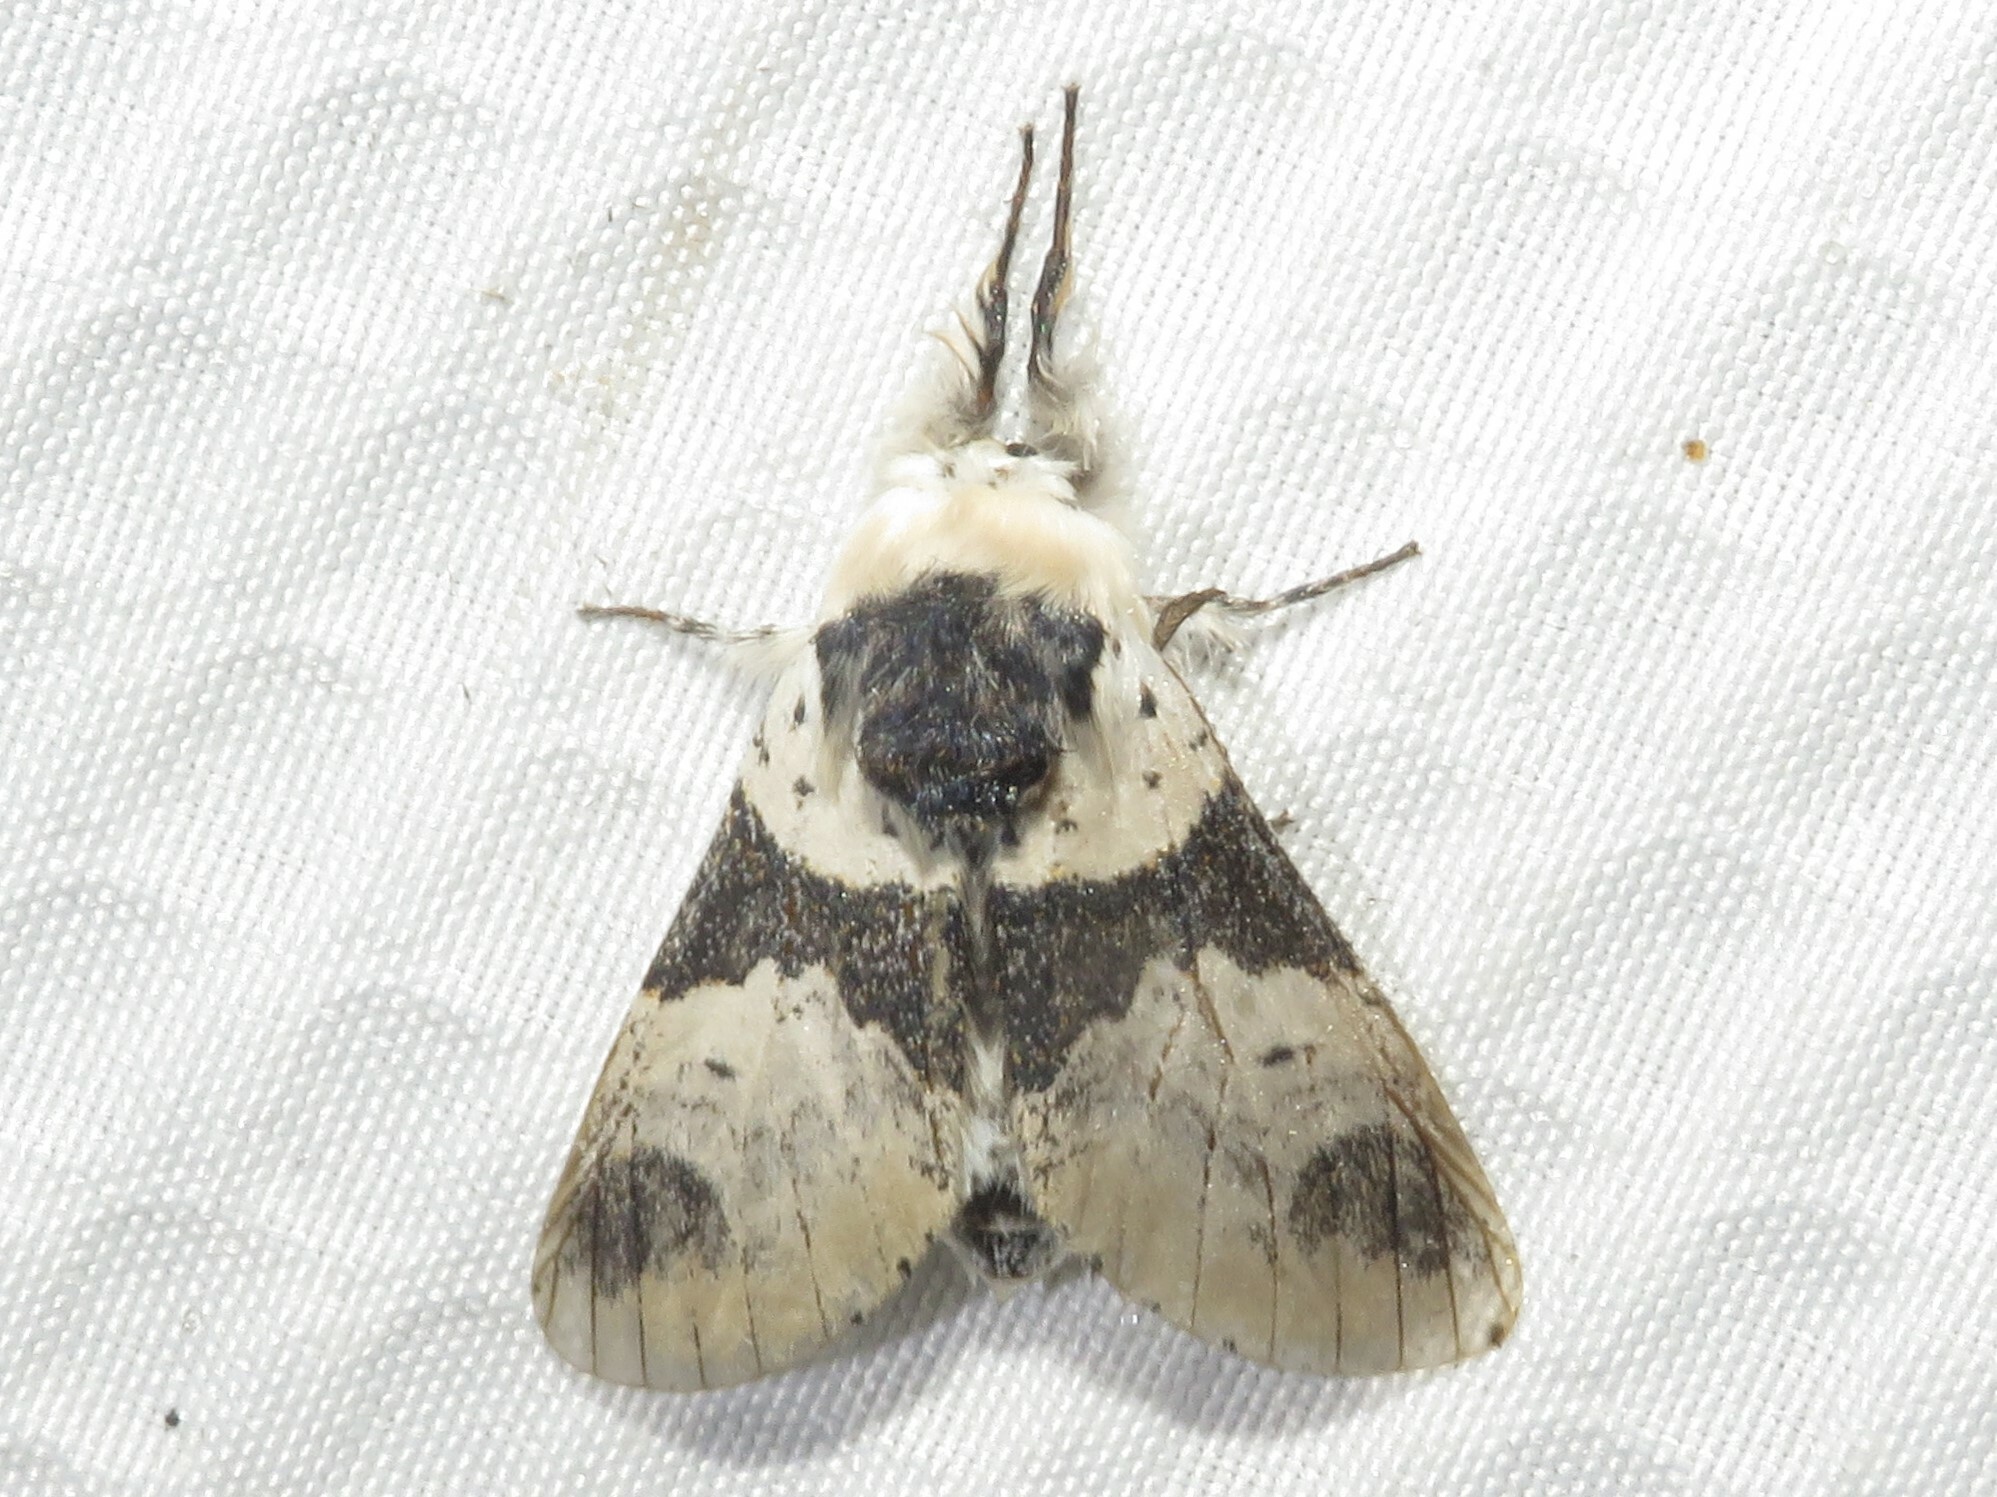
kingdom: Animalia
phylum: Arthropoda
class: Insecta
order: Lepidoptera
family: Notodontidae
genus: Furcula
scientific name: Furcula modesta
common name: Modest furcula moth
